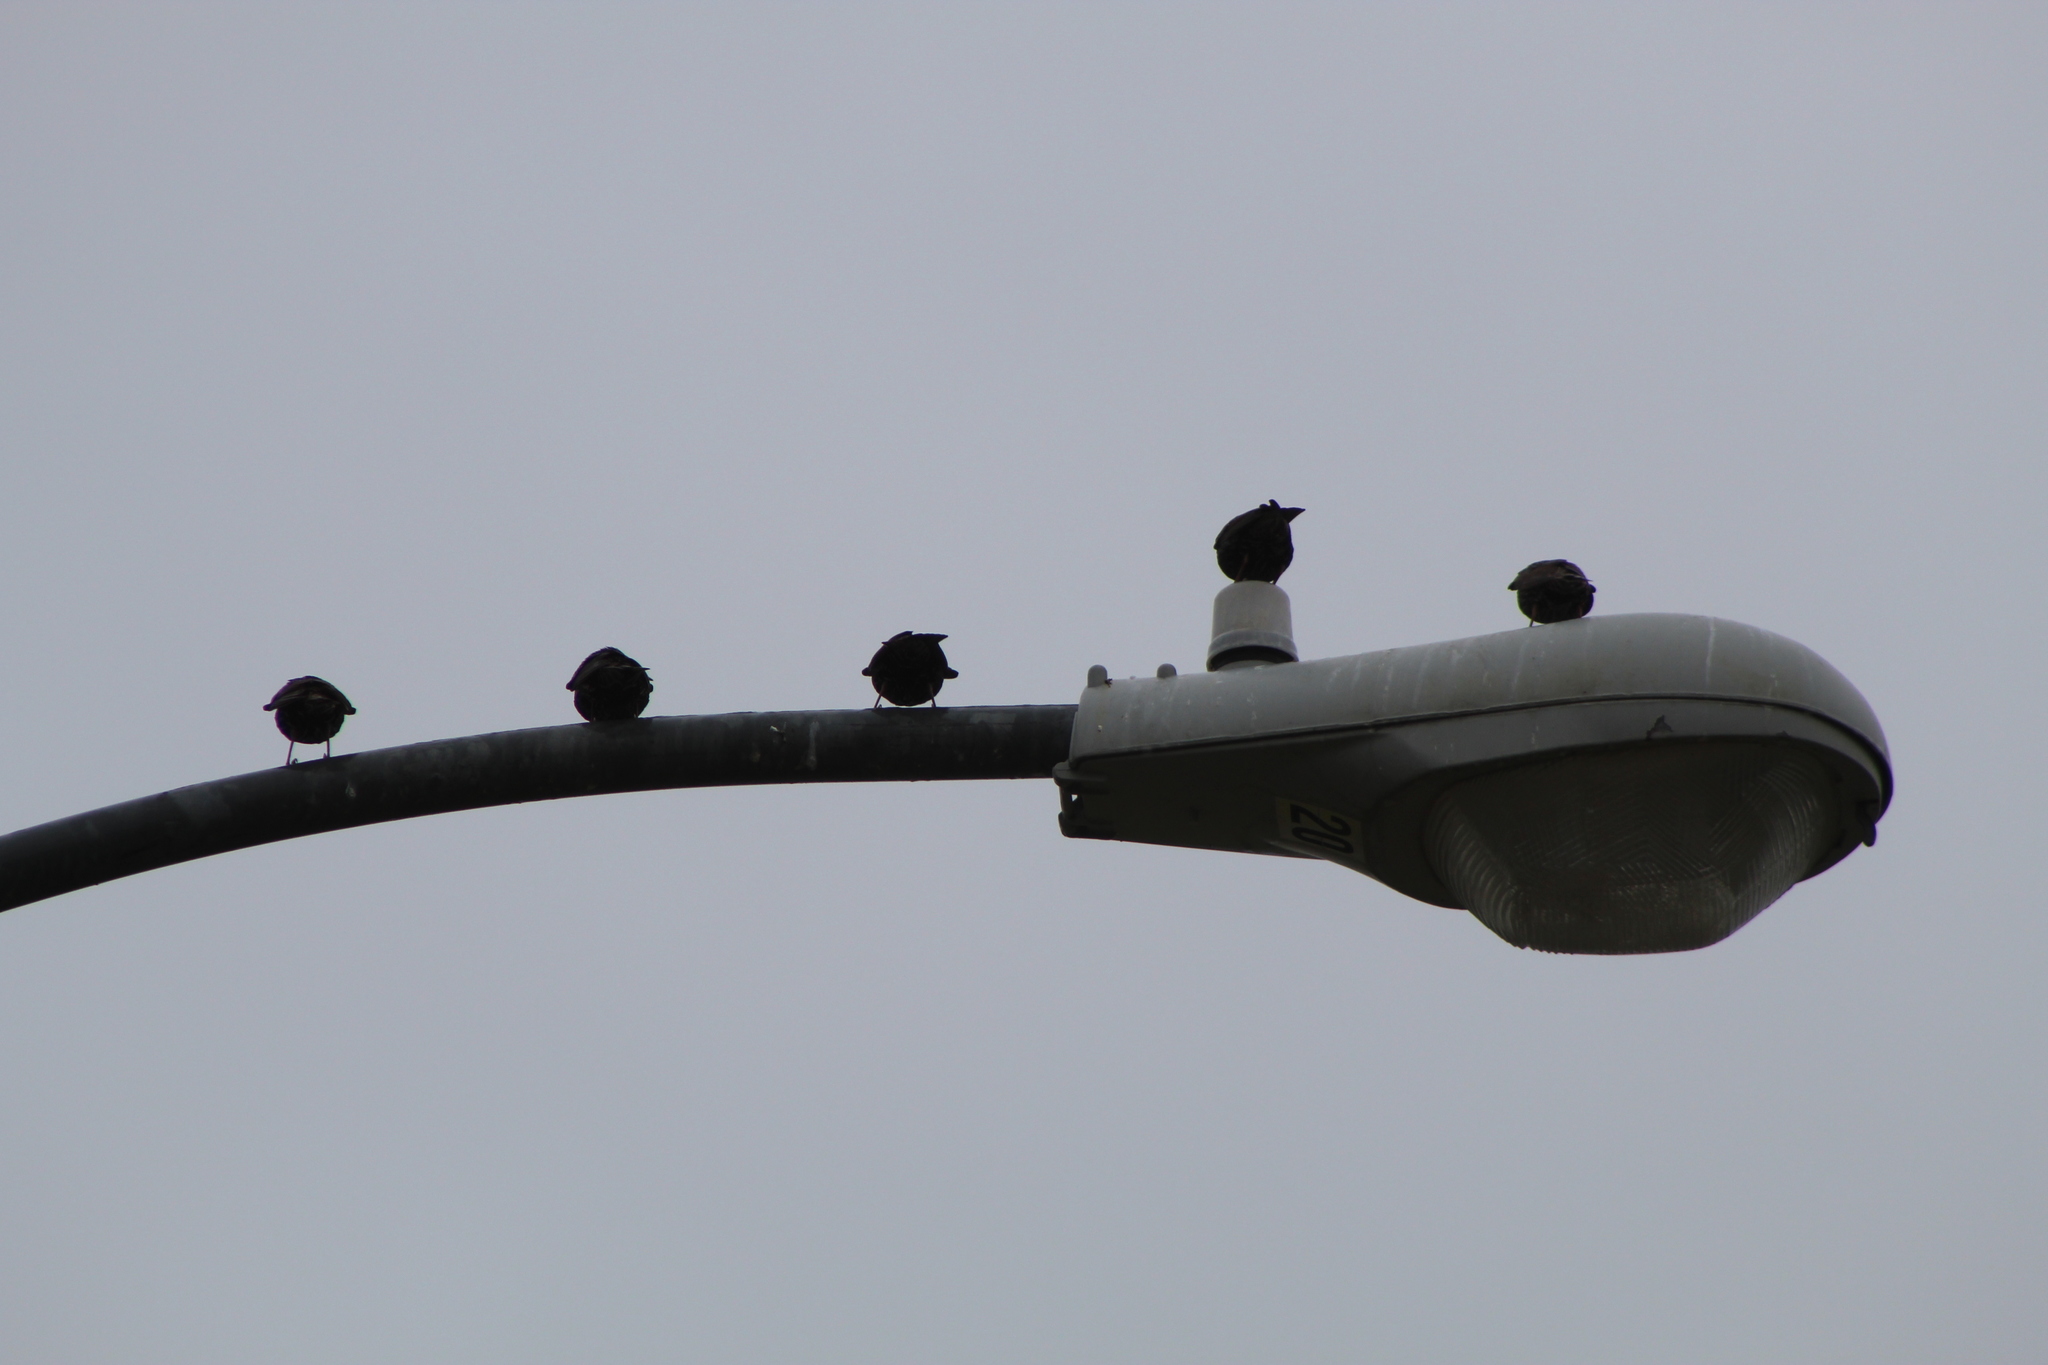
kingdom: Animalia
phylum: Chordata
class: Aves
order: Passeriformes
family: Sturnidae
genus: Sturnus
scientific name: Sturnus vulgaris
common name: Common starling
